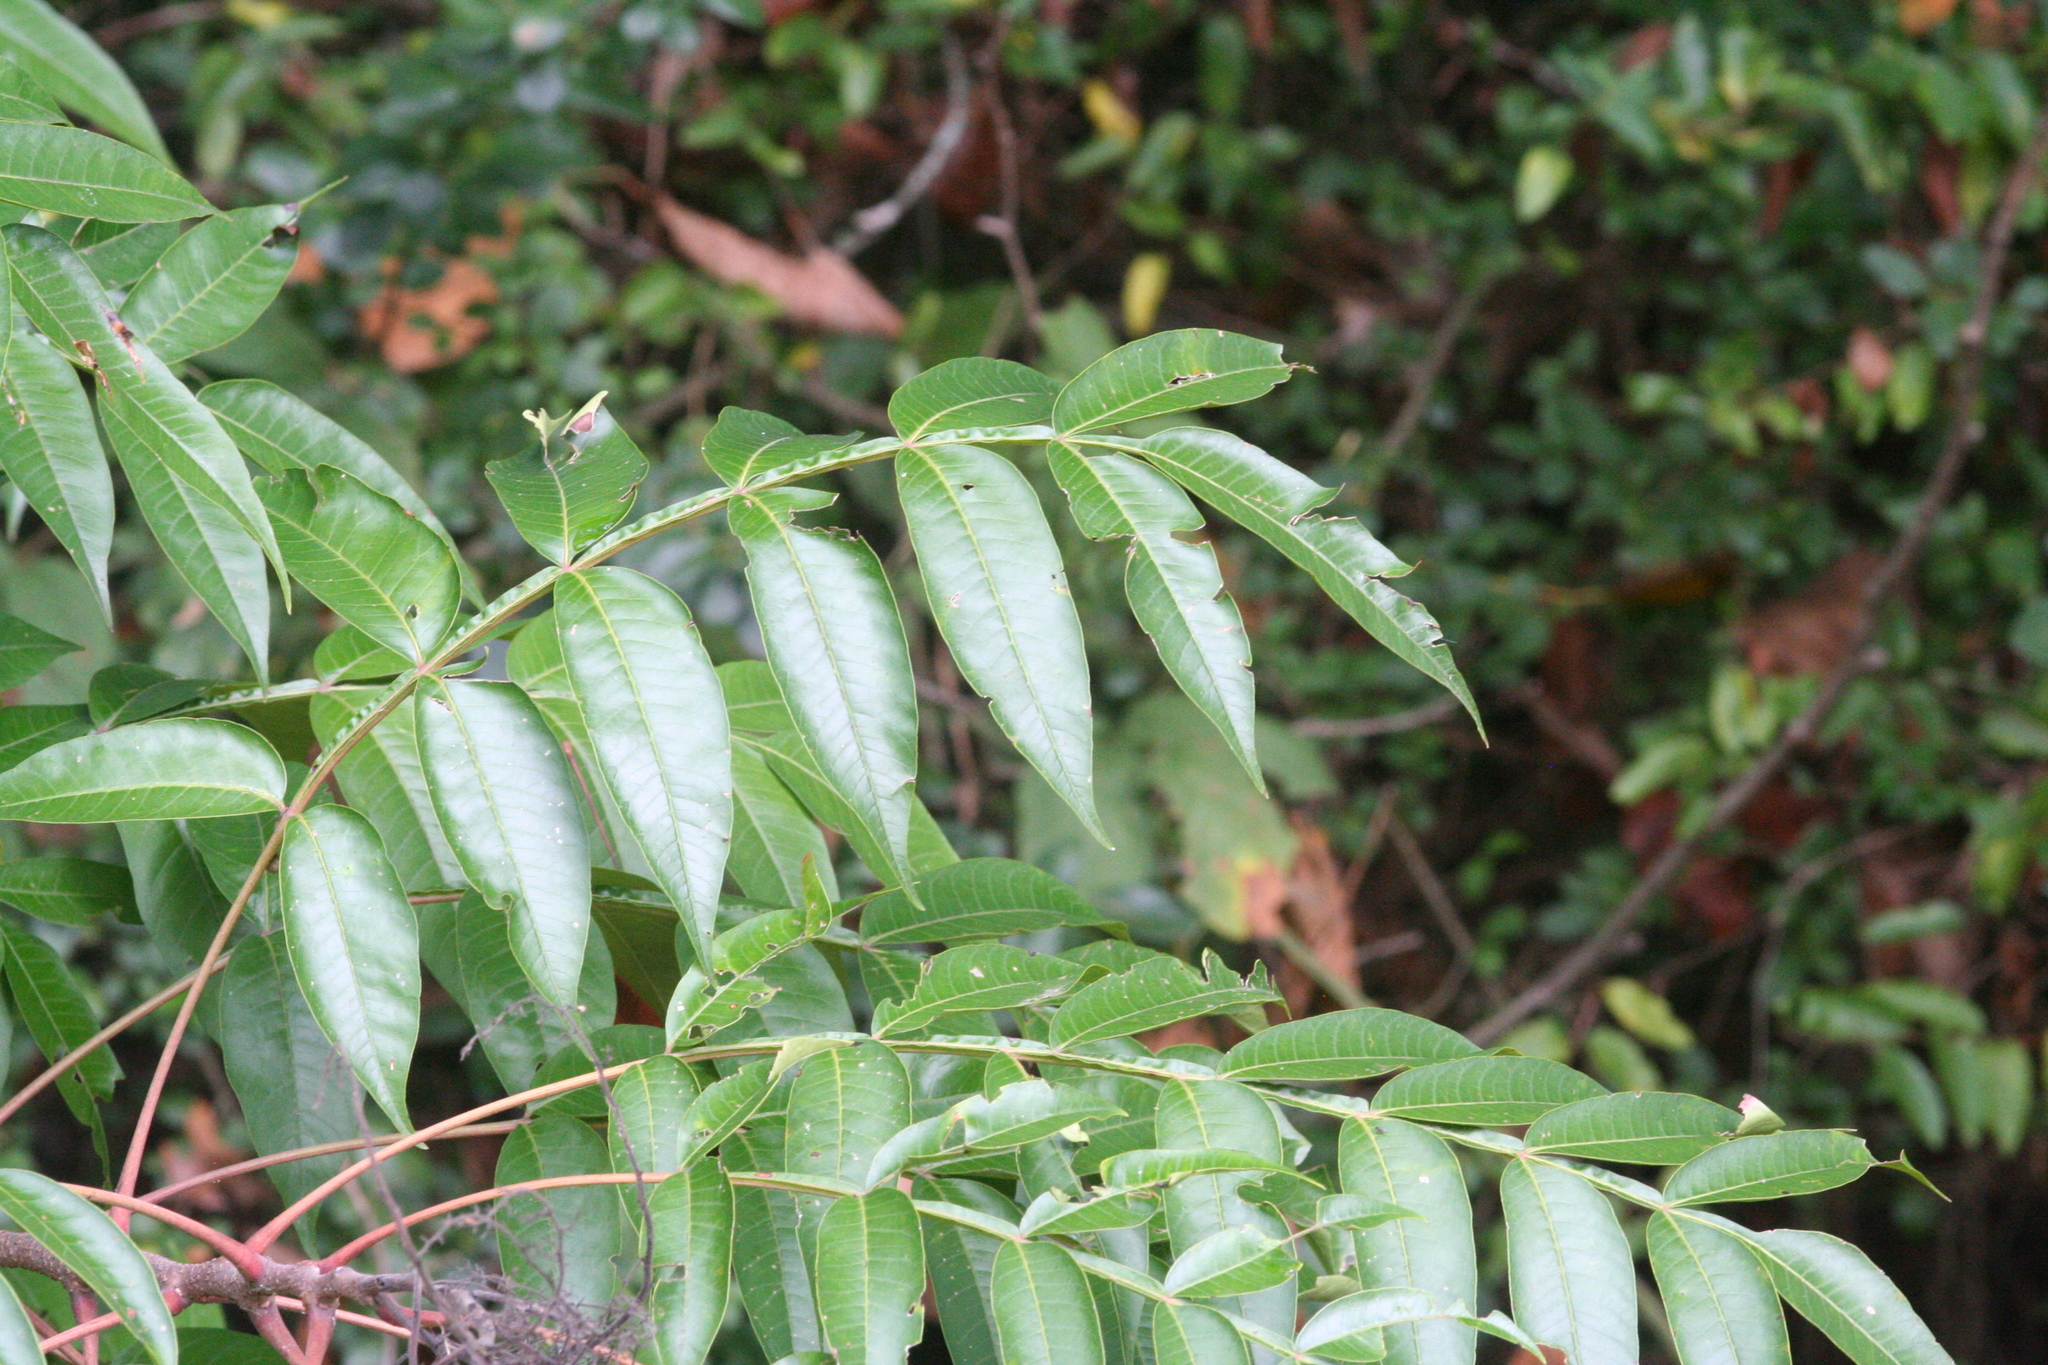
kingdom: Plantae
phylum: Tracheophyta
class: Magnoliopsida
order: Sapindales
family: Anacardiaceae
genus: Rhus
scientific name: Rhus copallina
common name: Shining sumac
